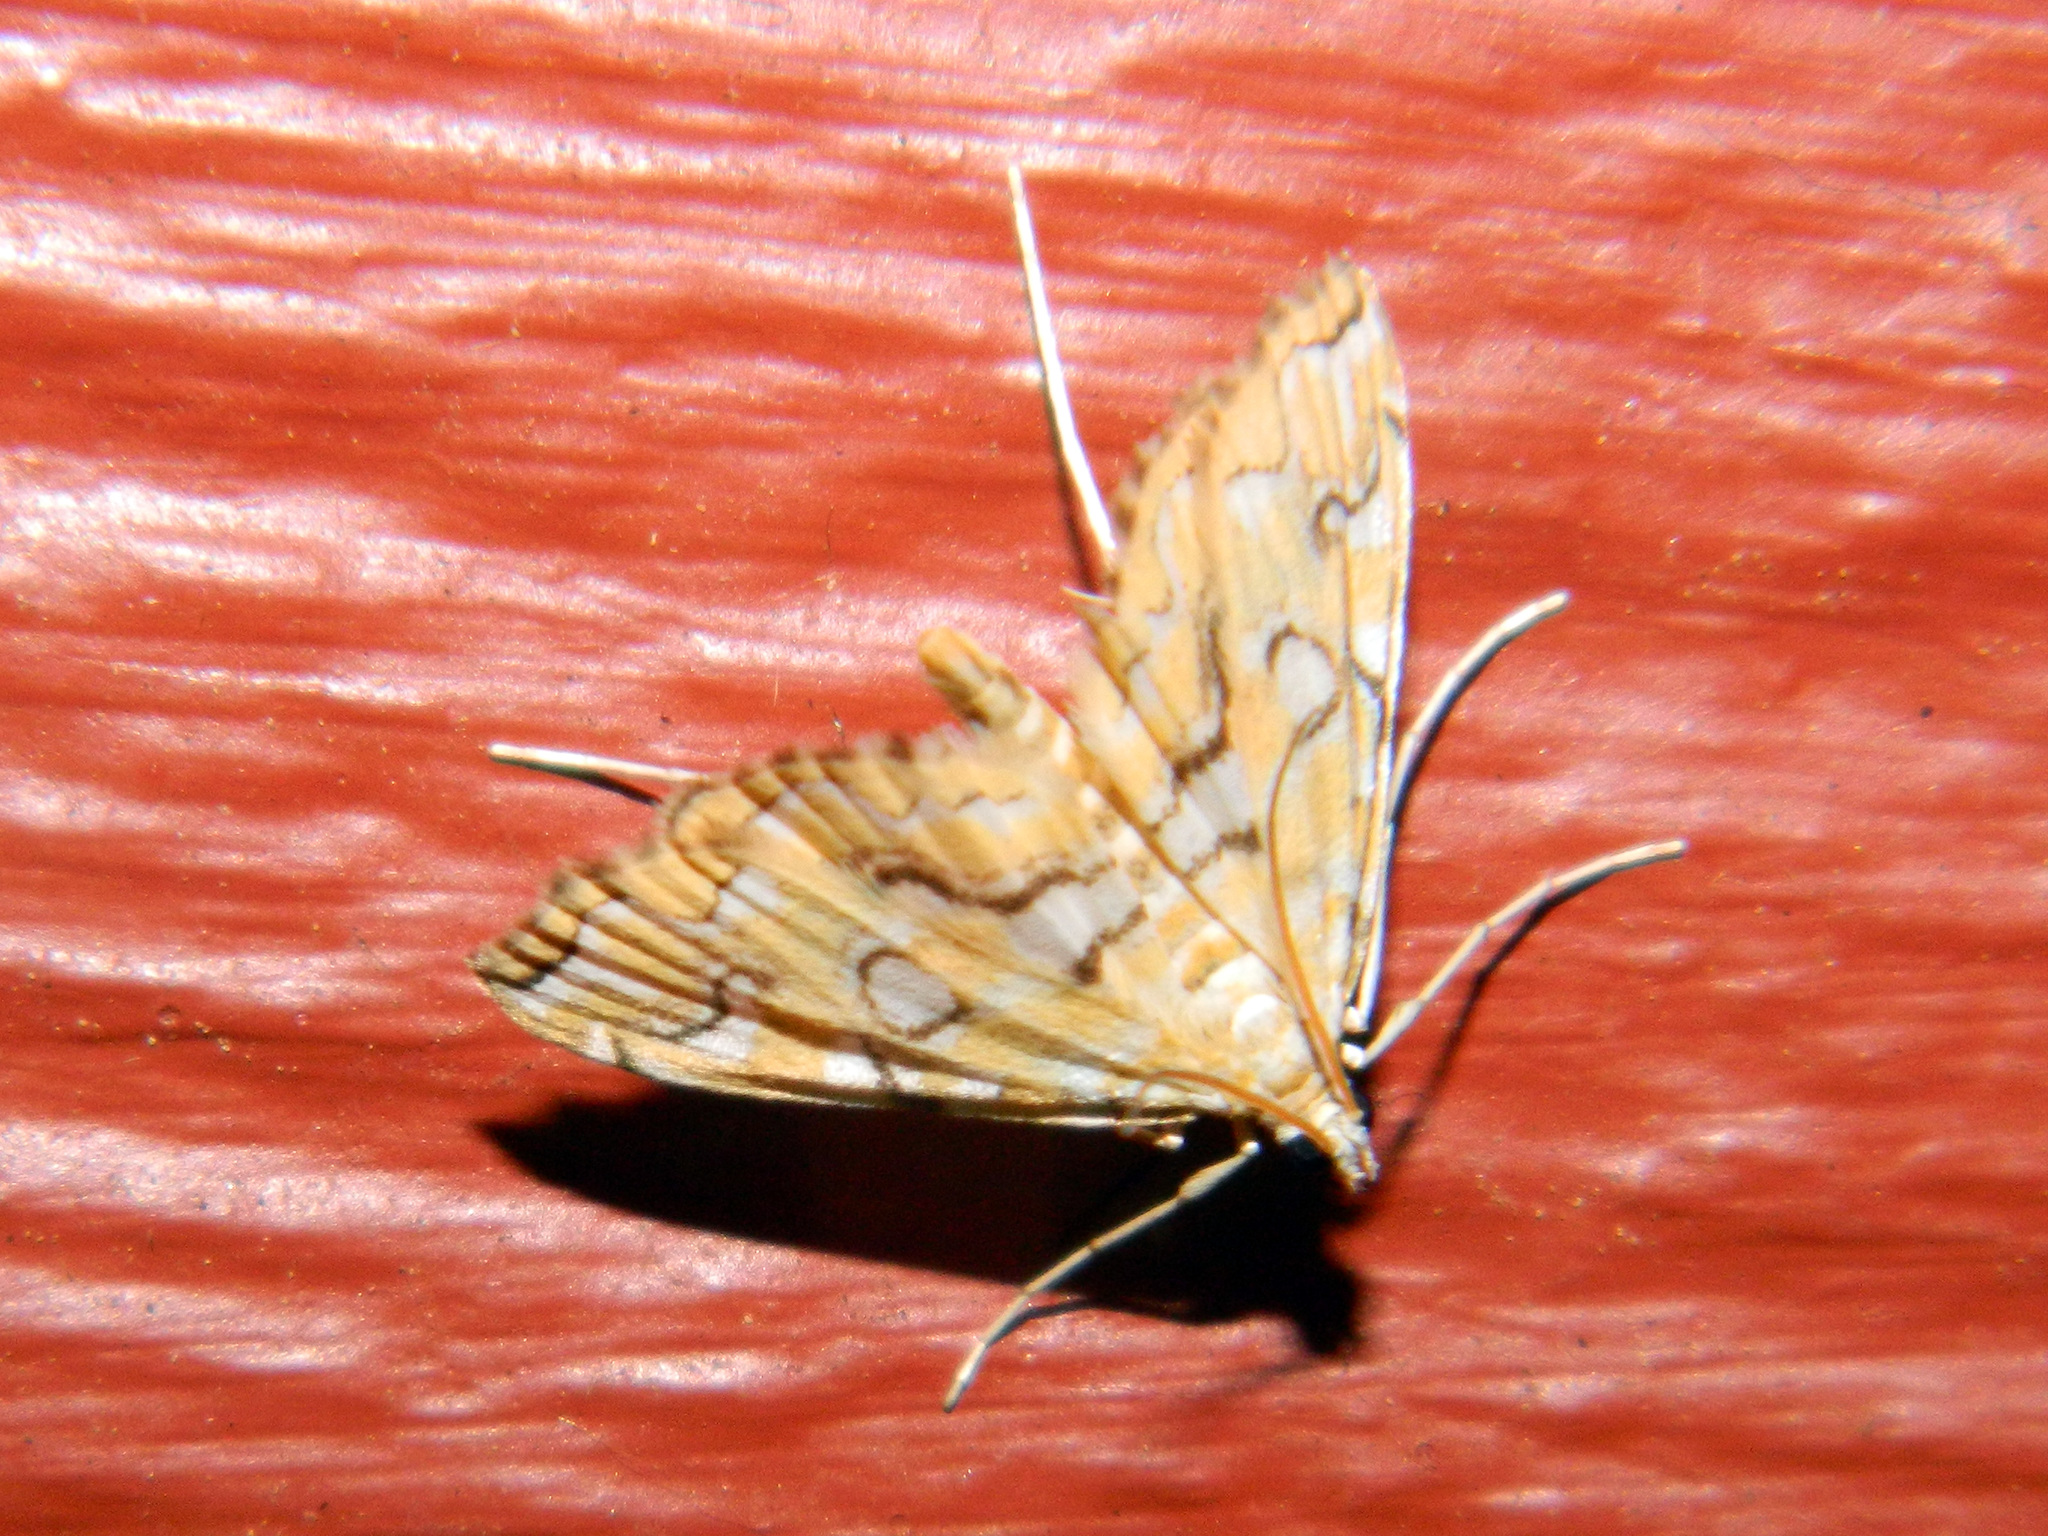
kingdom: Animalia
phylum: Arthropoda
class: Insecta
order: Lepidoptera
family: Crambidae
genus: Elophila
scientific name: Elophila icciusalis
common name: Pondside pyralid moth
